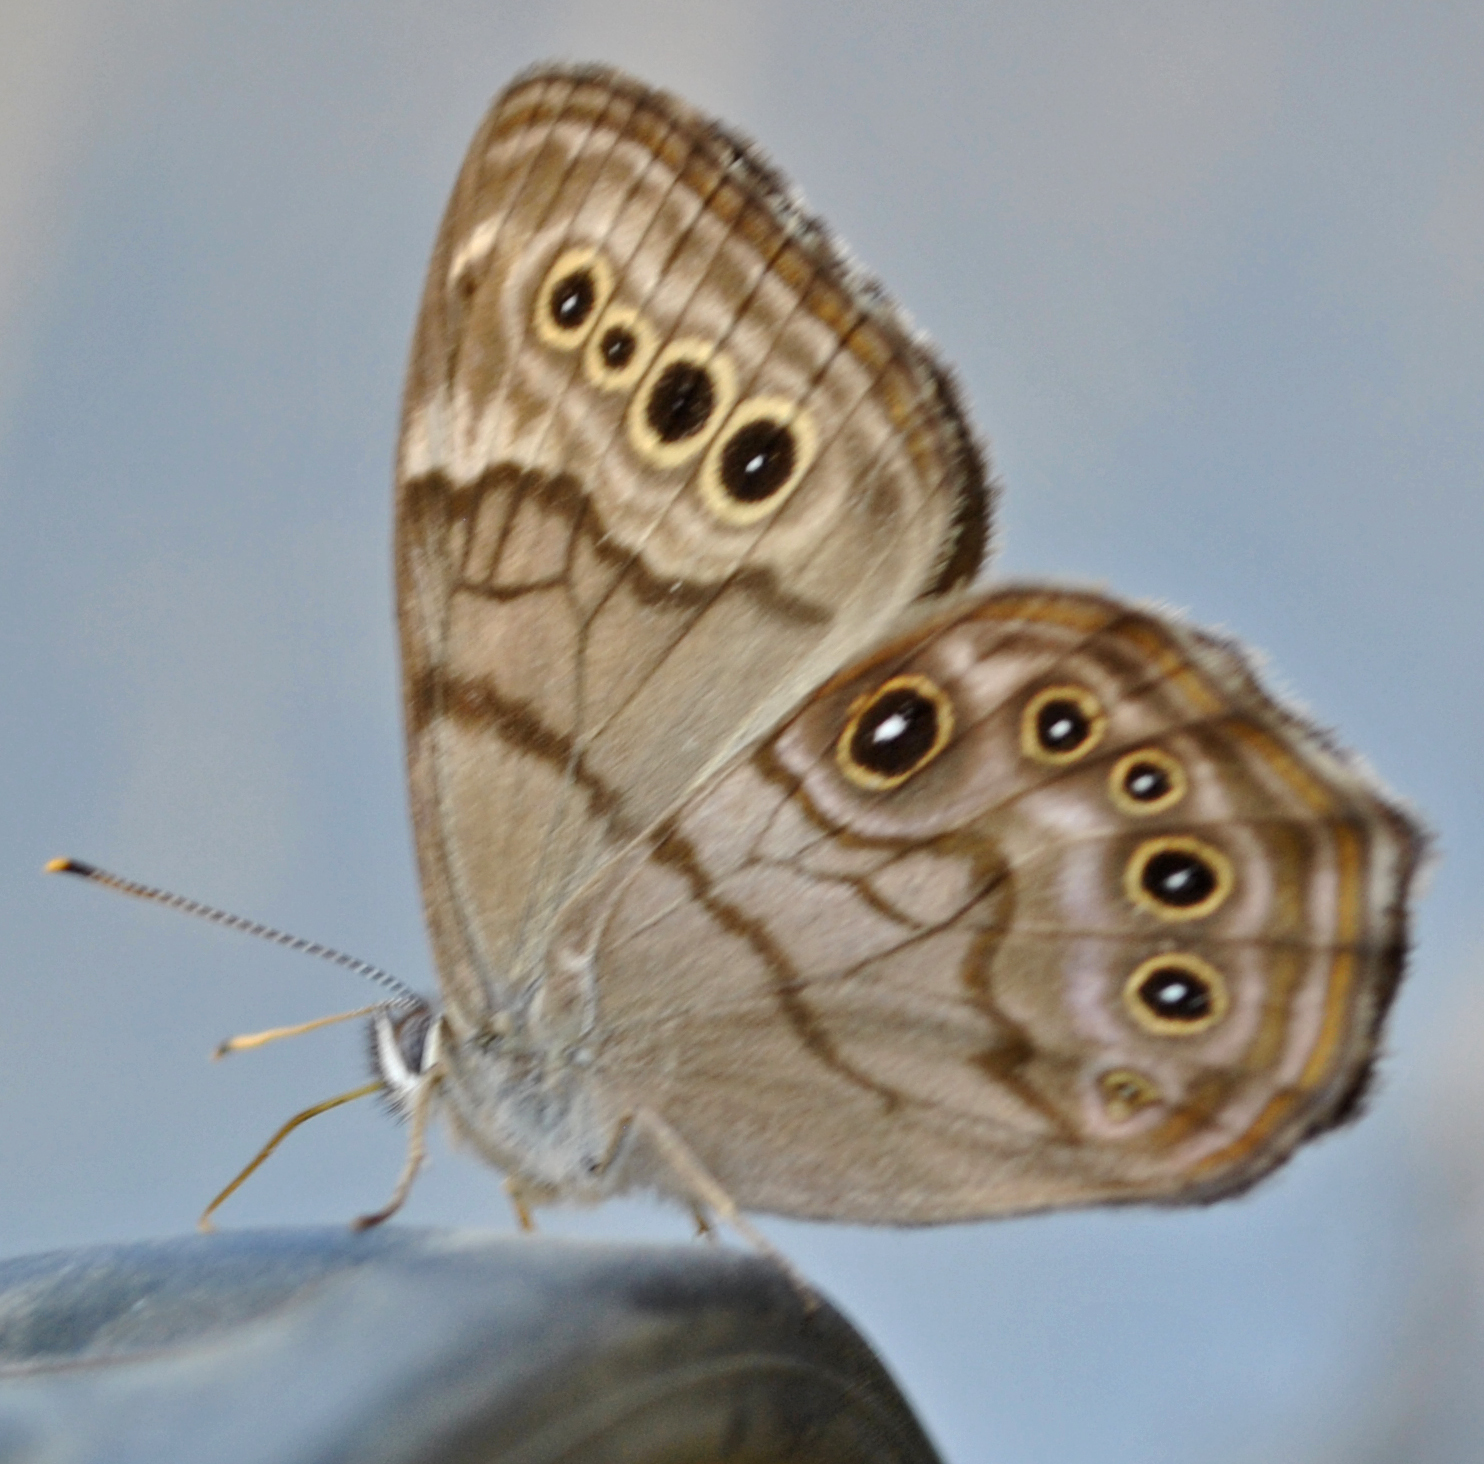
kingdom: Animalia
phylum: Arthropoda
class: Insecta
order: Lepidoptera
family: Nymphalidae
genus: Lethe
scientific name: Lethe anthedon
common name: Northern pearly-eye
